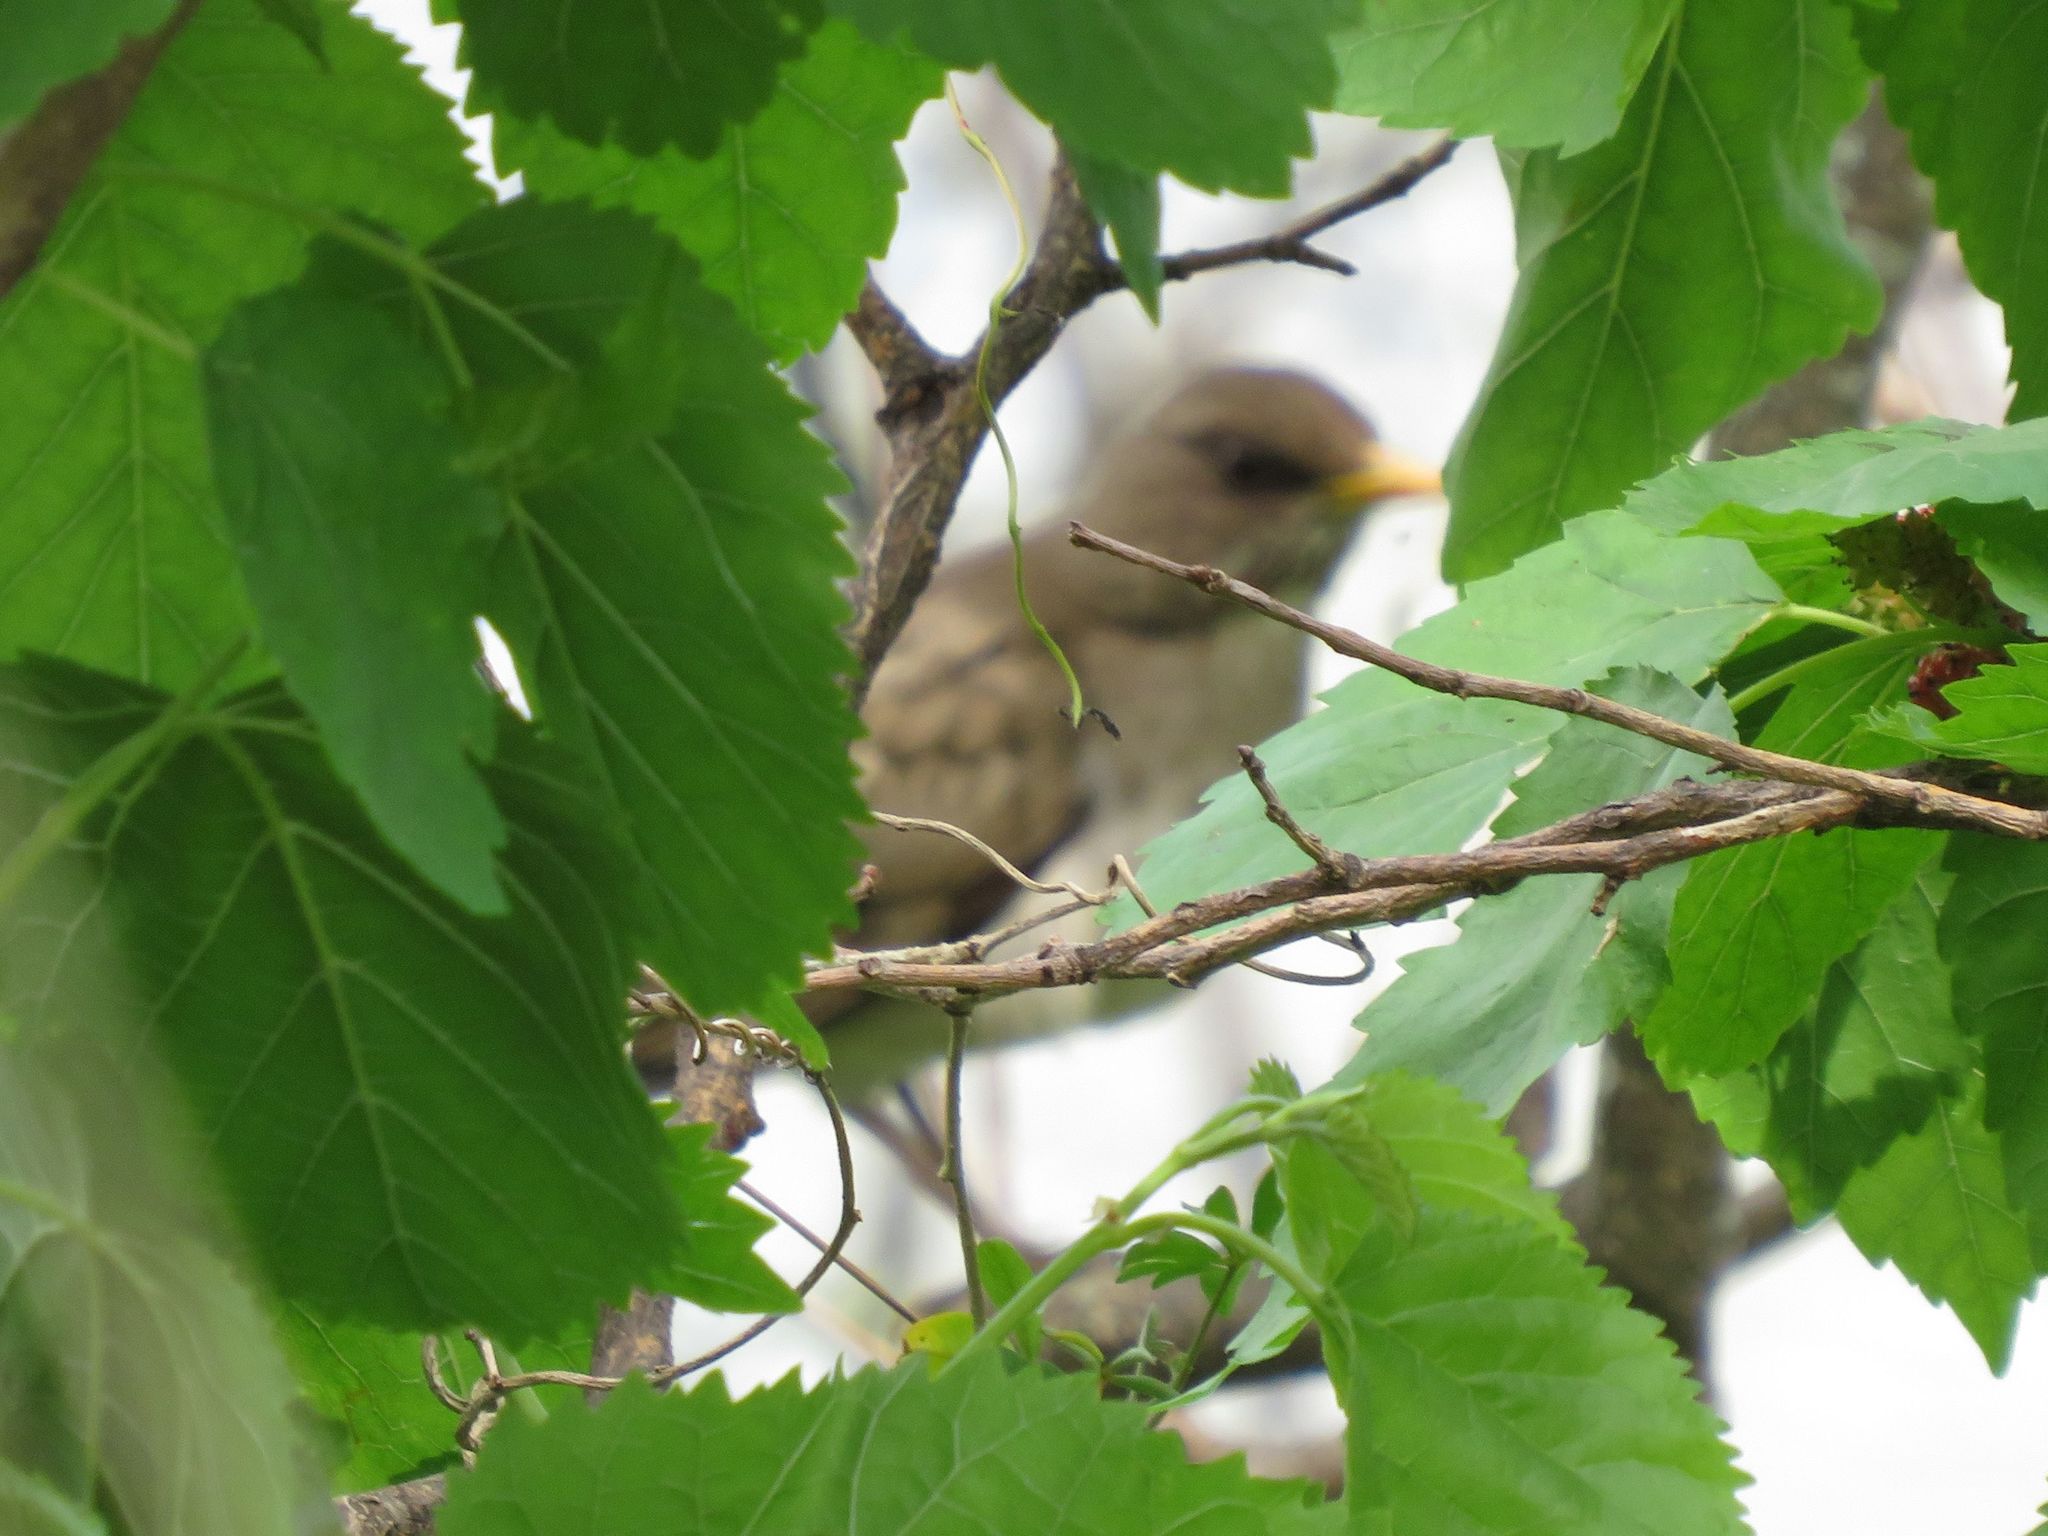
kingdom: Animalia
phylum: Chordata
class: Aves
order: Passeriformes
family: Turdidae
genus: Turdus
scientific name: Turdus amaurochalinus
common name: Creamy-bellied thrush
